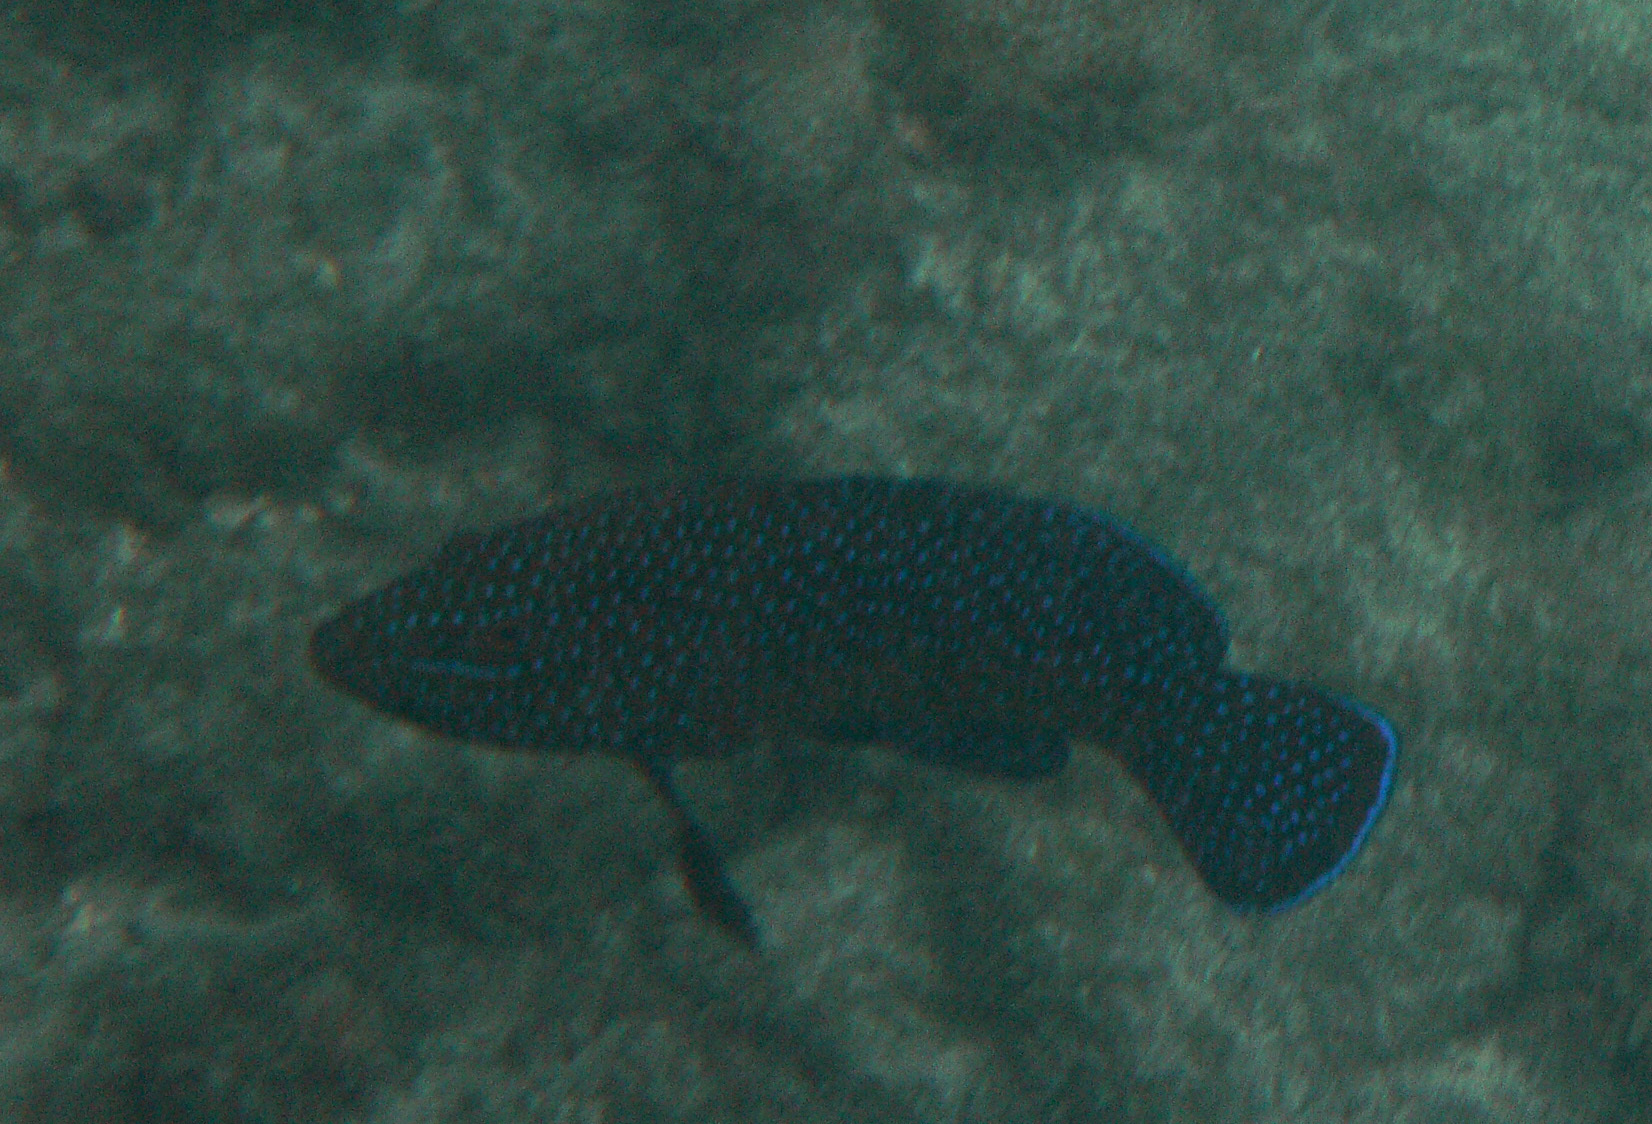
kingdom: Animalia
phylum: Chordata
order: Perciformes
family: Serranidae
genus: Cephalopholis
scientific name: Cephalopholis taeniops
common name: African hind
